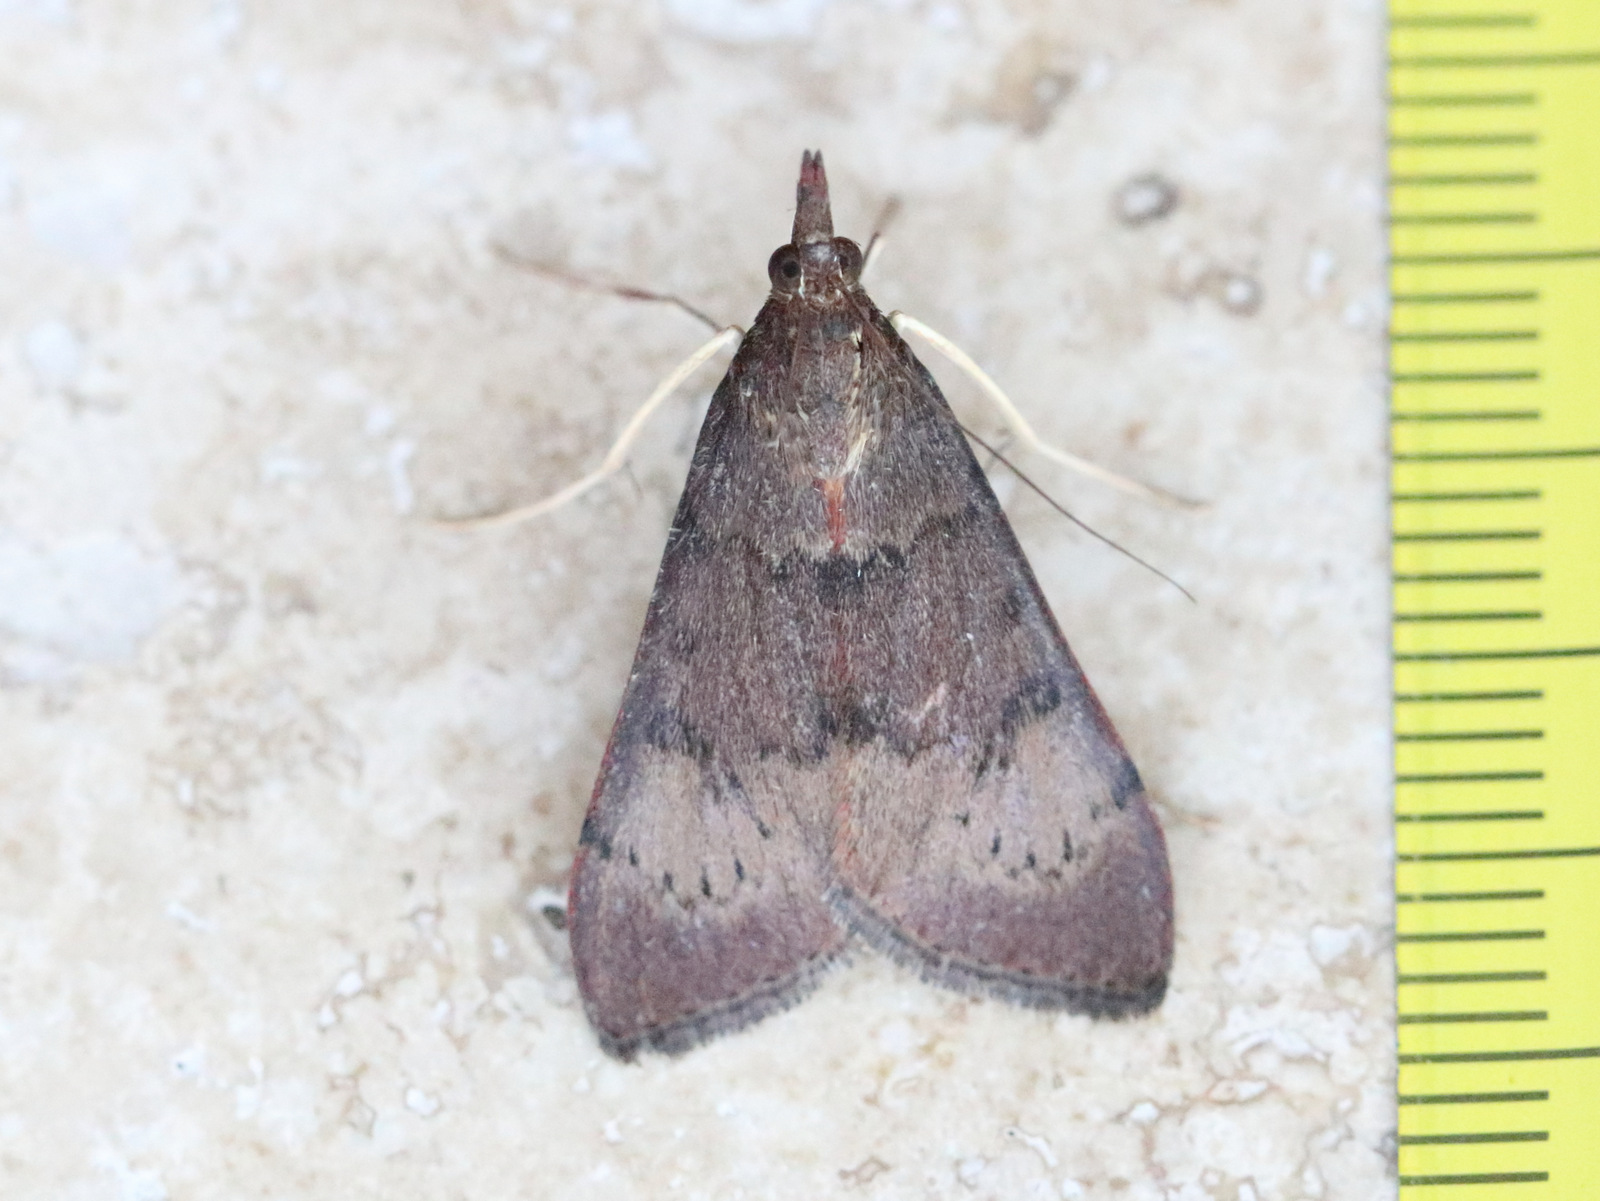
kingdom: Animalia
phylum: Arthropoda
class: Insecta
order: Lepidoptera
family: Crambidae
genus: Uresiphita
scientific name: Uresiphita ornithopteralis
